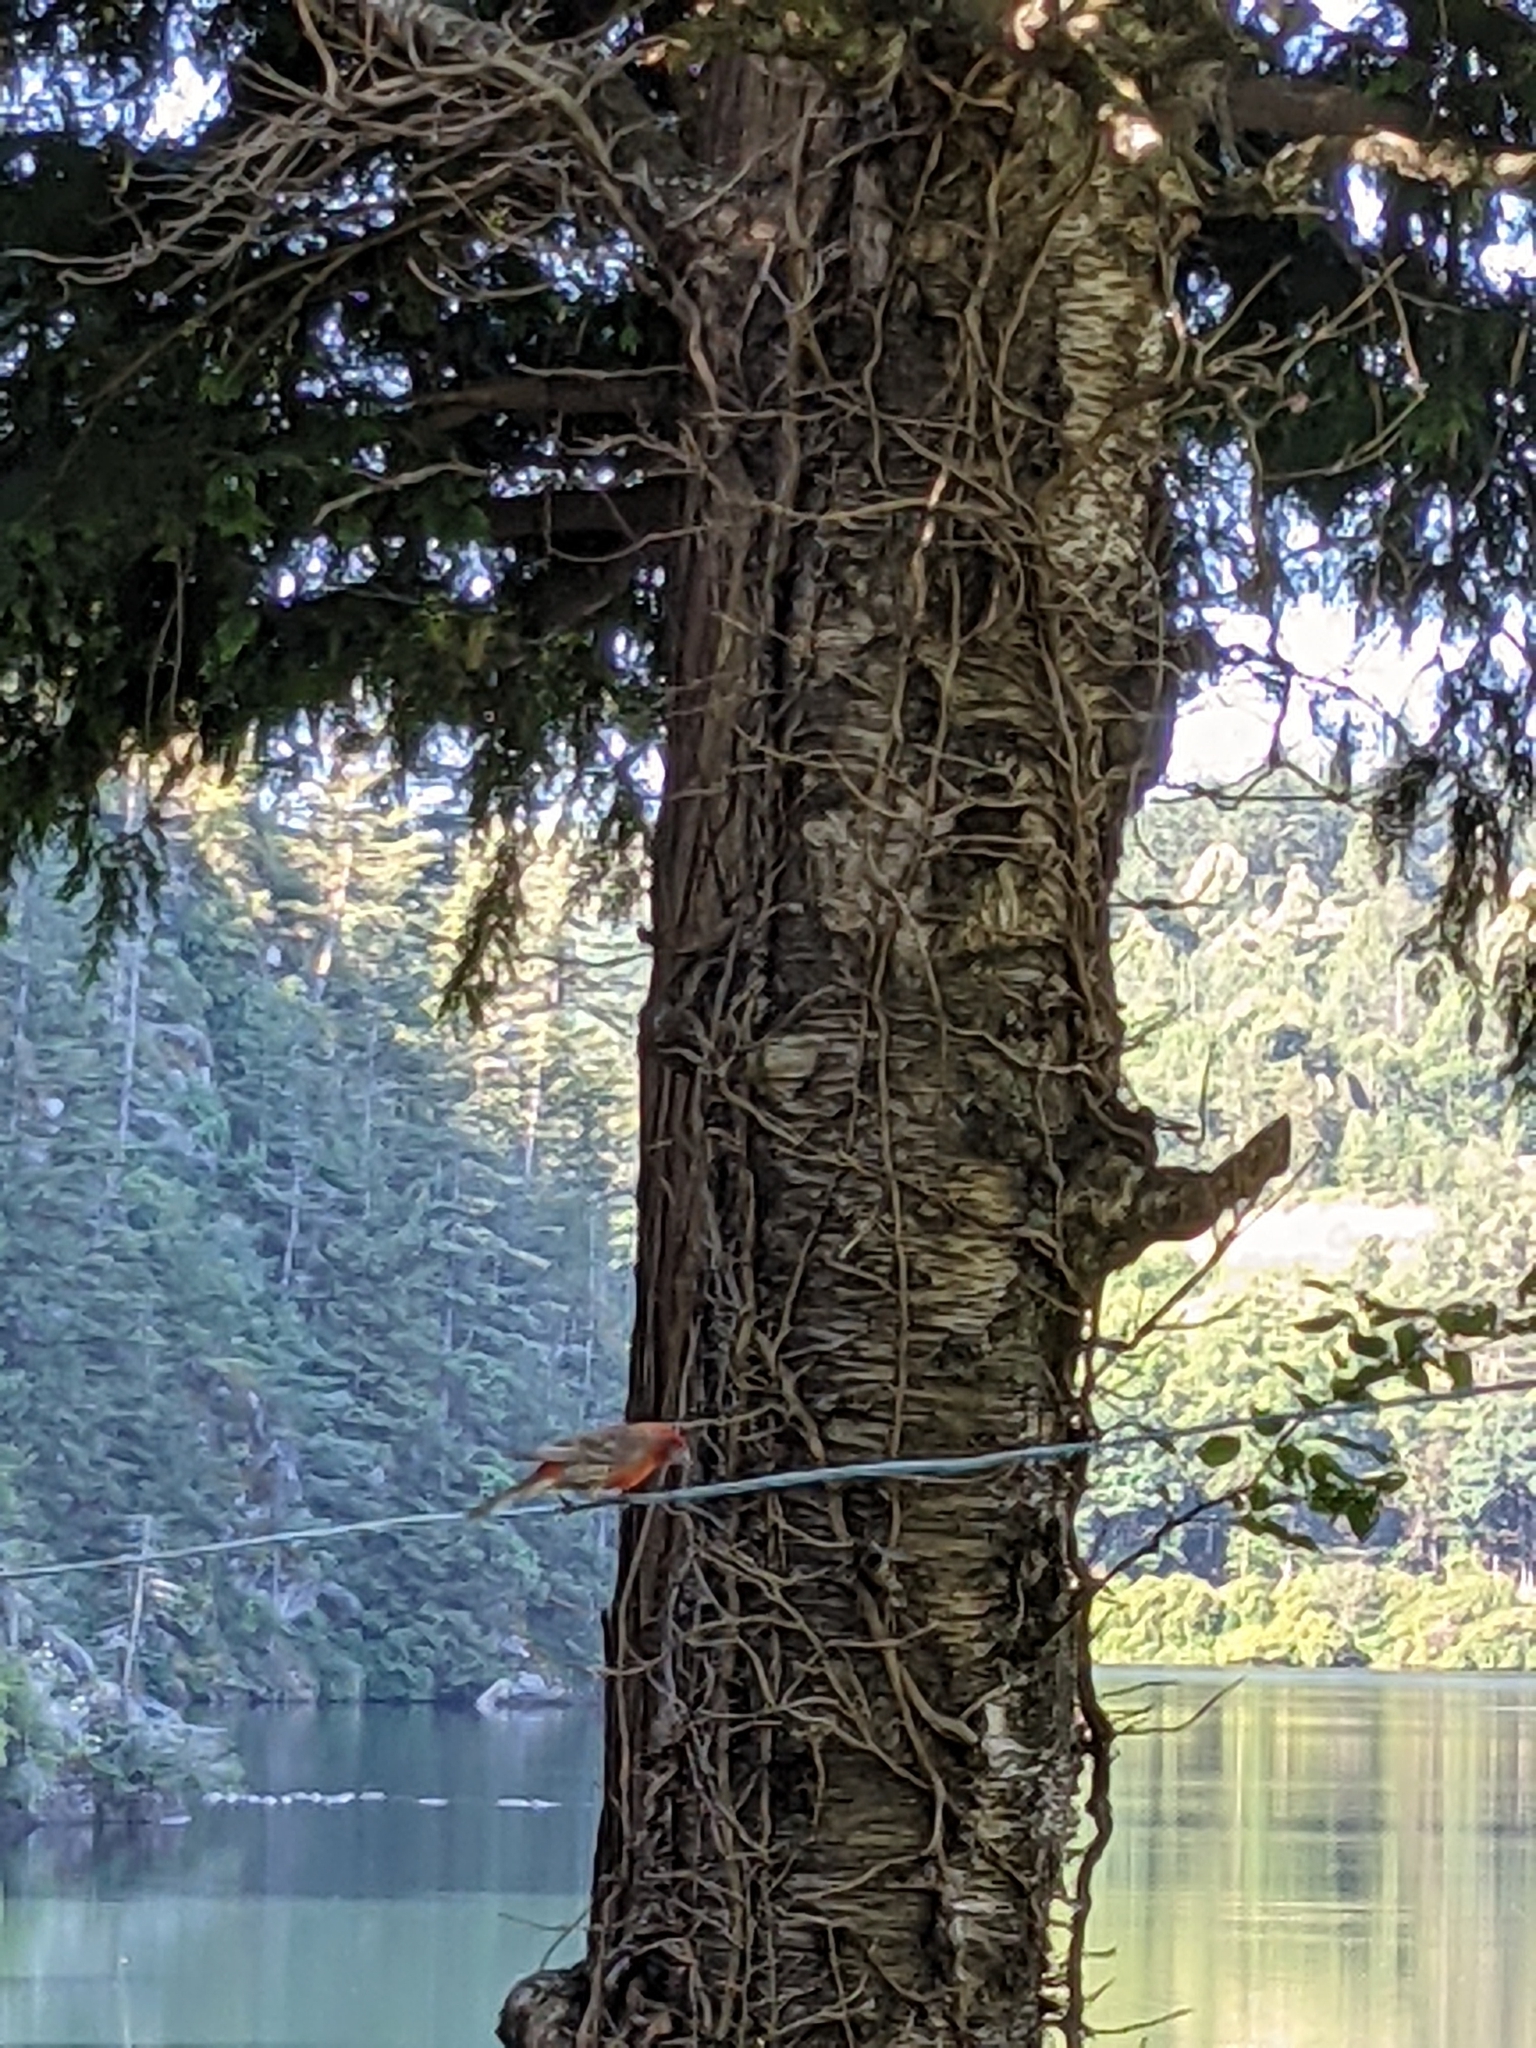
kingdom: Animalia
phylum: Chordata
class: Aves
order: Passeriformes
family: Fringillidae
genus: Haemorhous
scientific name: Haemorhous mexicanus
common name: House finch
